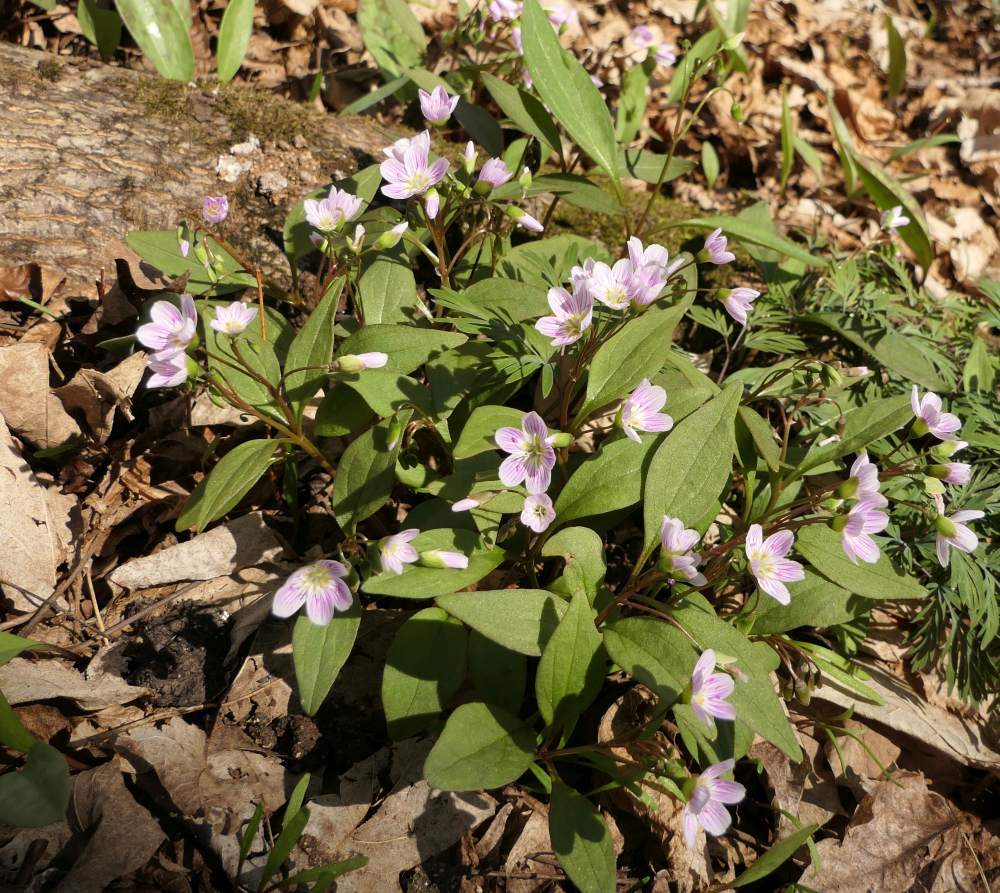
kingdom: Plantae
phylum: Tracheophyta
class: Magnoliopsida
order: Caryophyllales
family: Montiaceae
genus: Claytonia
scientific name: Claytonia caroliniana
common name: Carolina spring beauty
